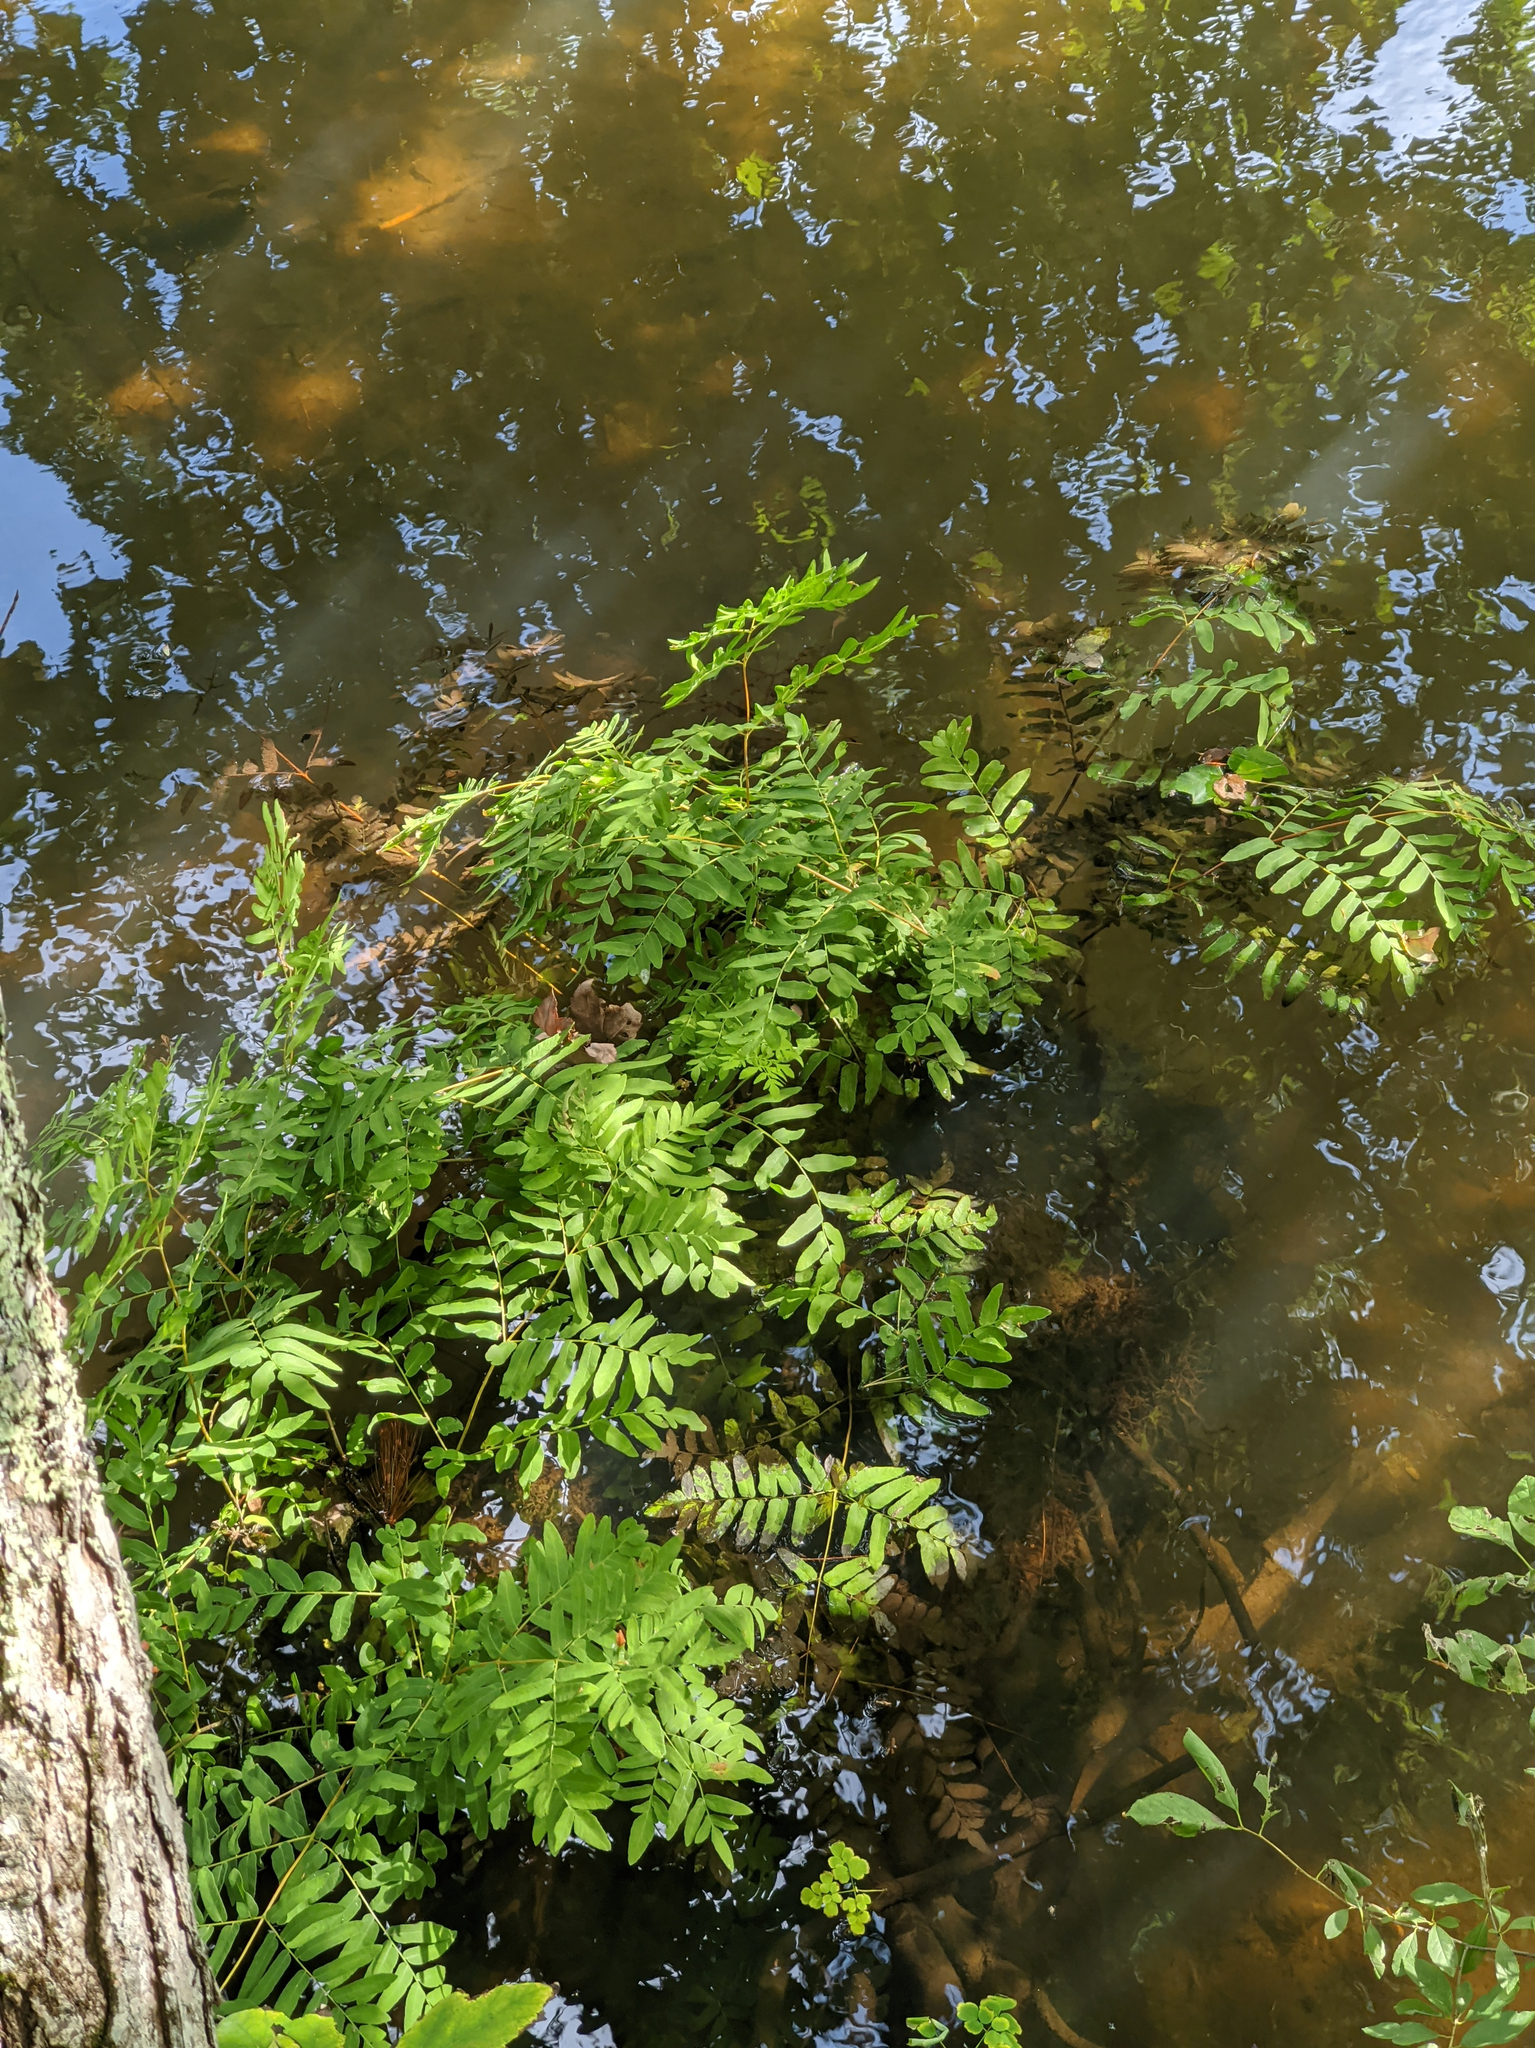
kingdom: Plantae
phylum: Tracheophyta
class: Polypodiopsida
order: Osmundales
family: Osmundaceae
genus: Osmunda
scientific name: Osmunda spectabilis
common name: American royal fern
